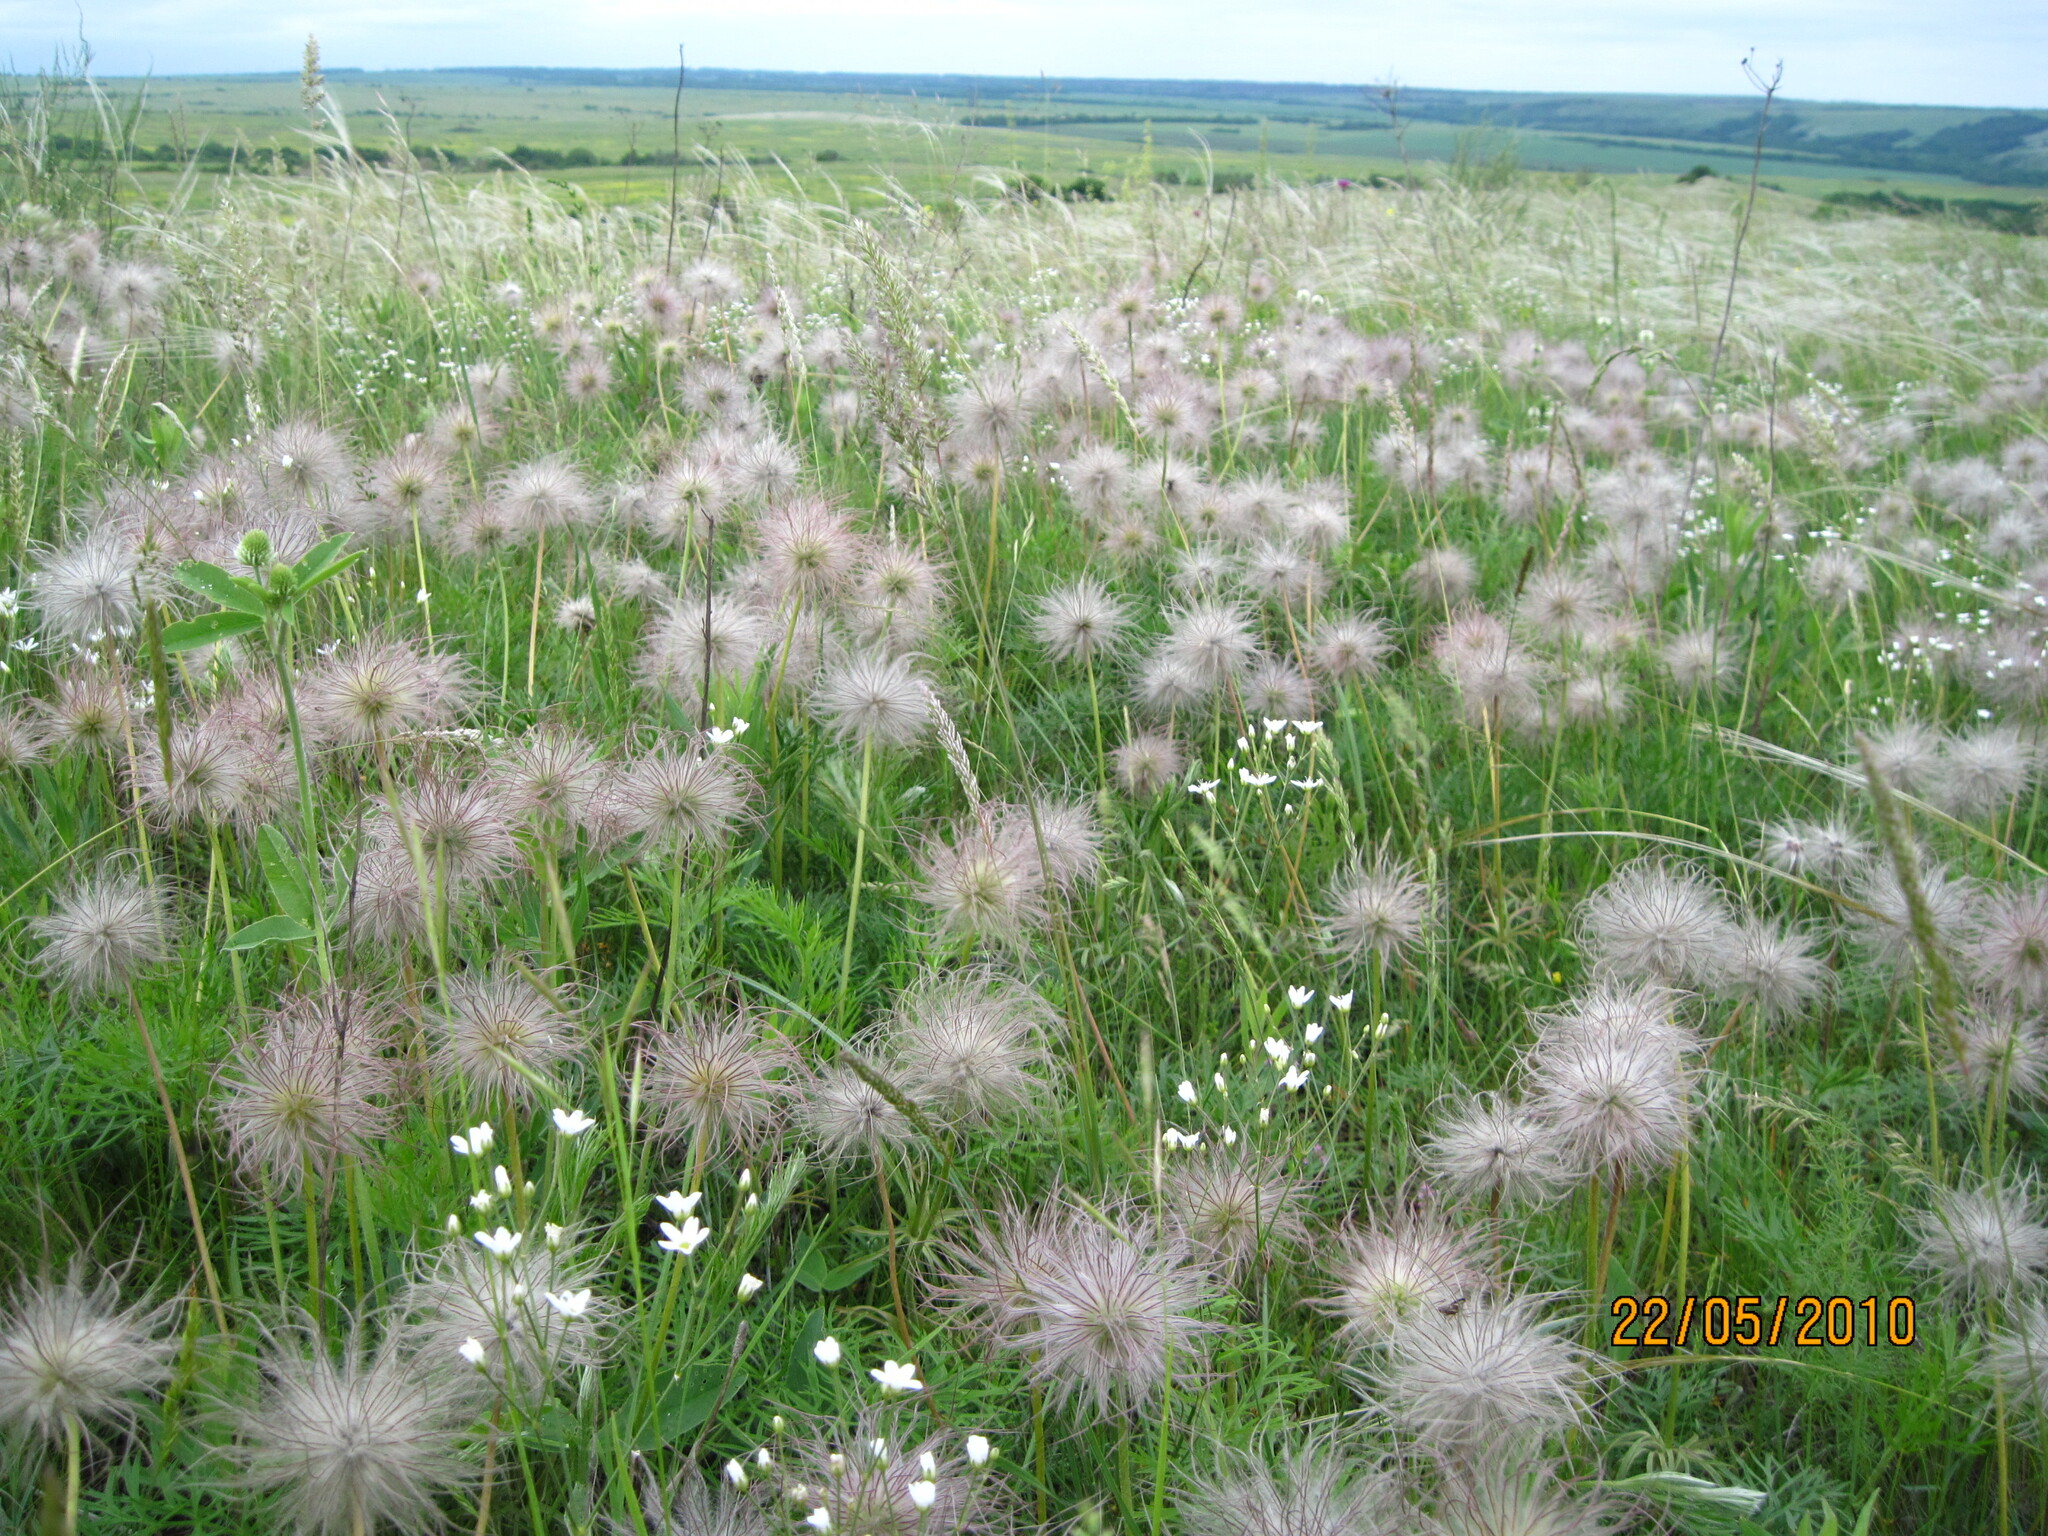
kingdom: Plantae
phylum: Tracheophyta
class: Magnoliopsida
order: Ranunculales
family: Ranunculaceae
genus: Pulsatilla
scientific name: Pulsatilla pratensis
